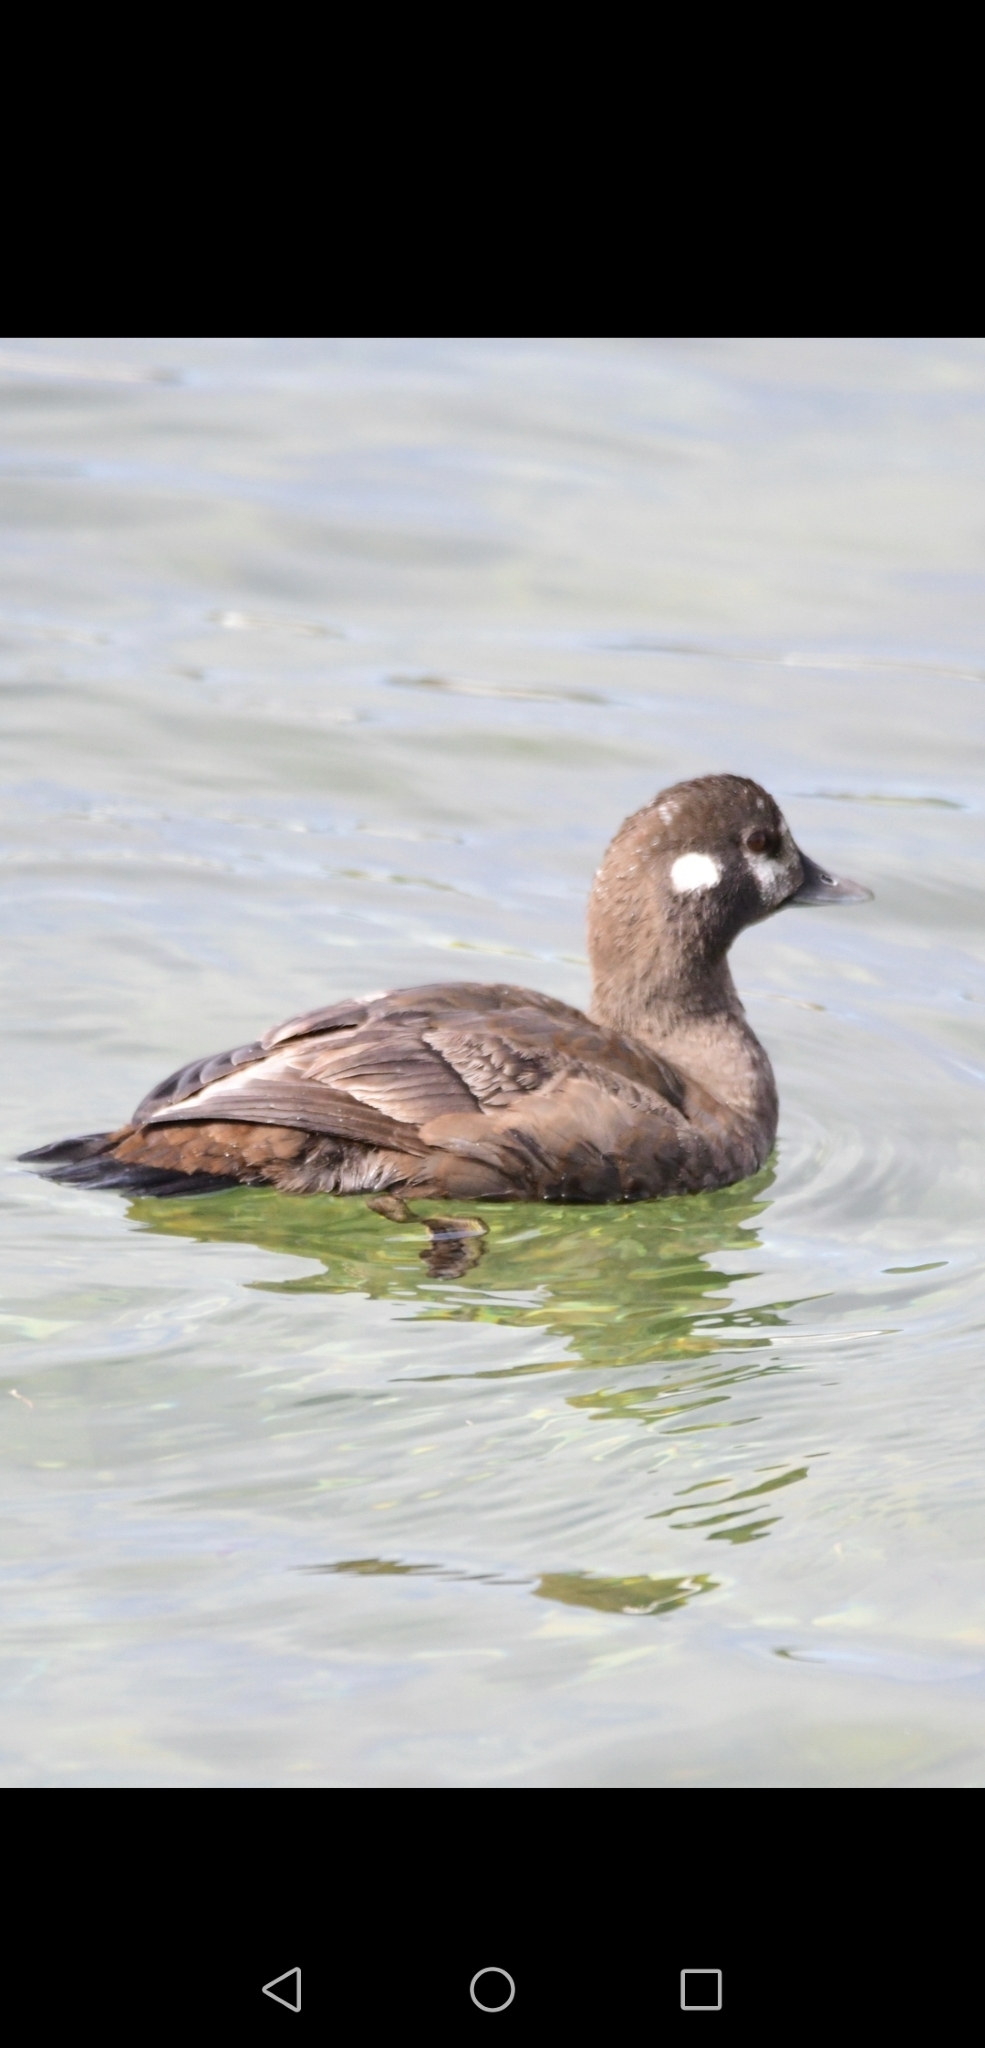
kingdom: Animalia
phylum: Chordata
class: Aves
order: Anseriformes
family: Anatidae
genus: Histrionicus
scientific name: Histrionicus histrionicus
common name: Harlequin duck
